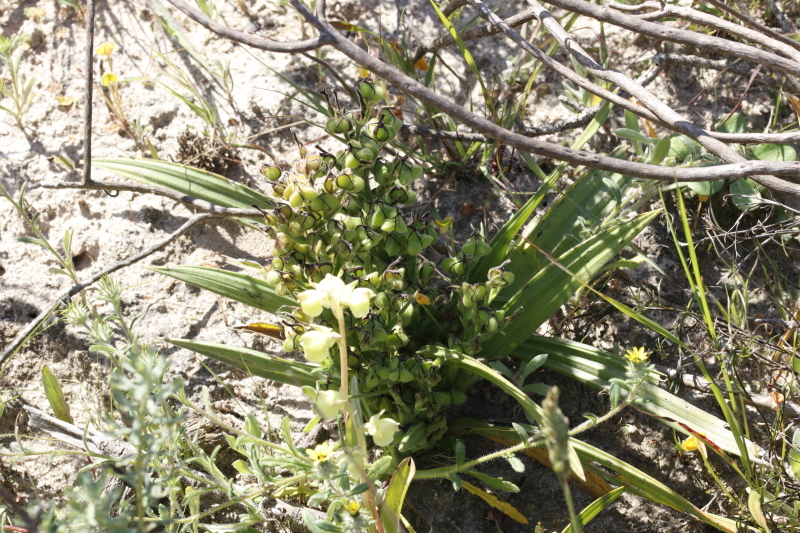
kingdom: Plantae
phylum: Tracheophyta
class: Liliopsida
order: Commelinales
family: Haemodoraceae
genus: Wachendorfia
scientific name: Wachendorfia multiflora
